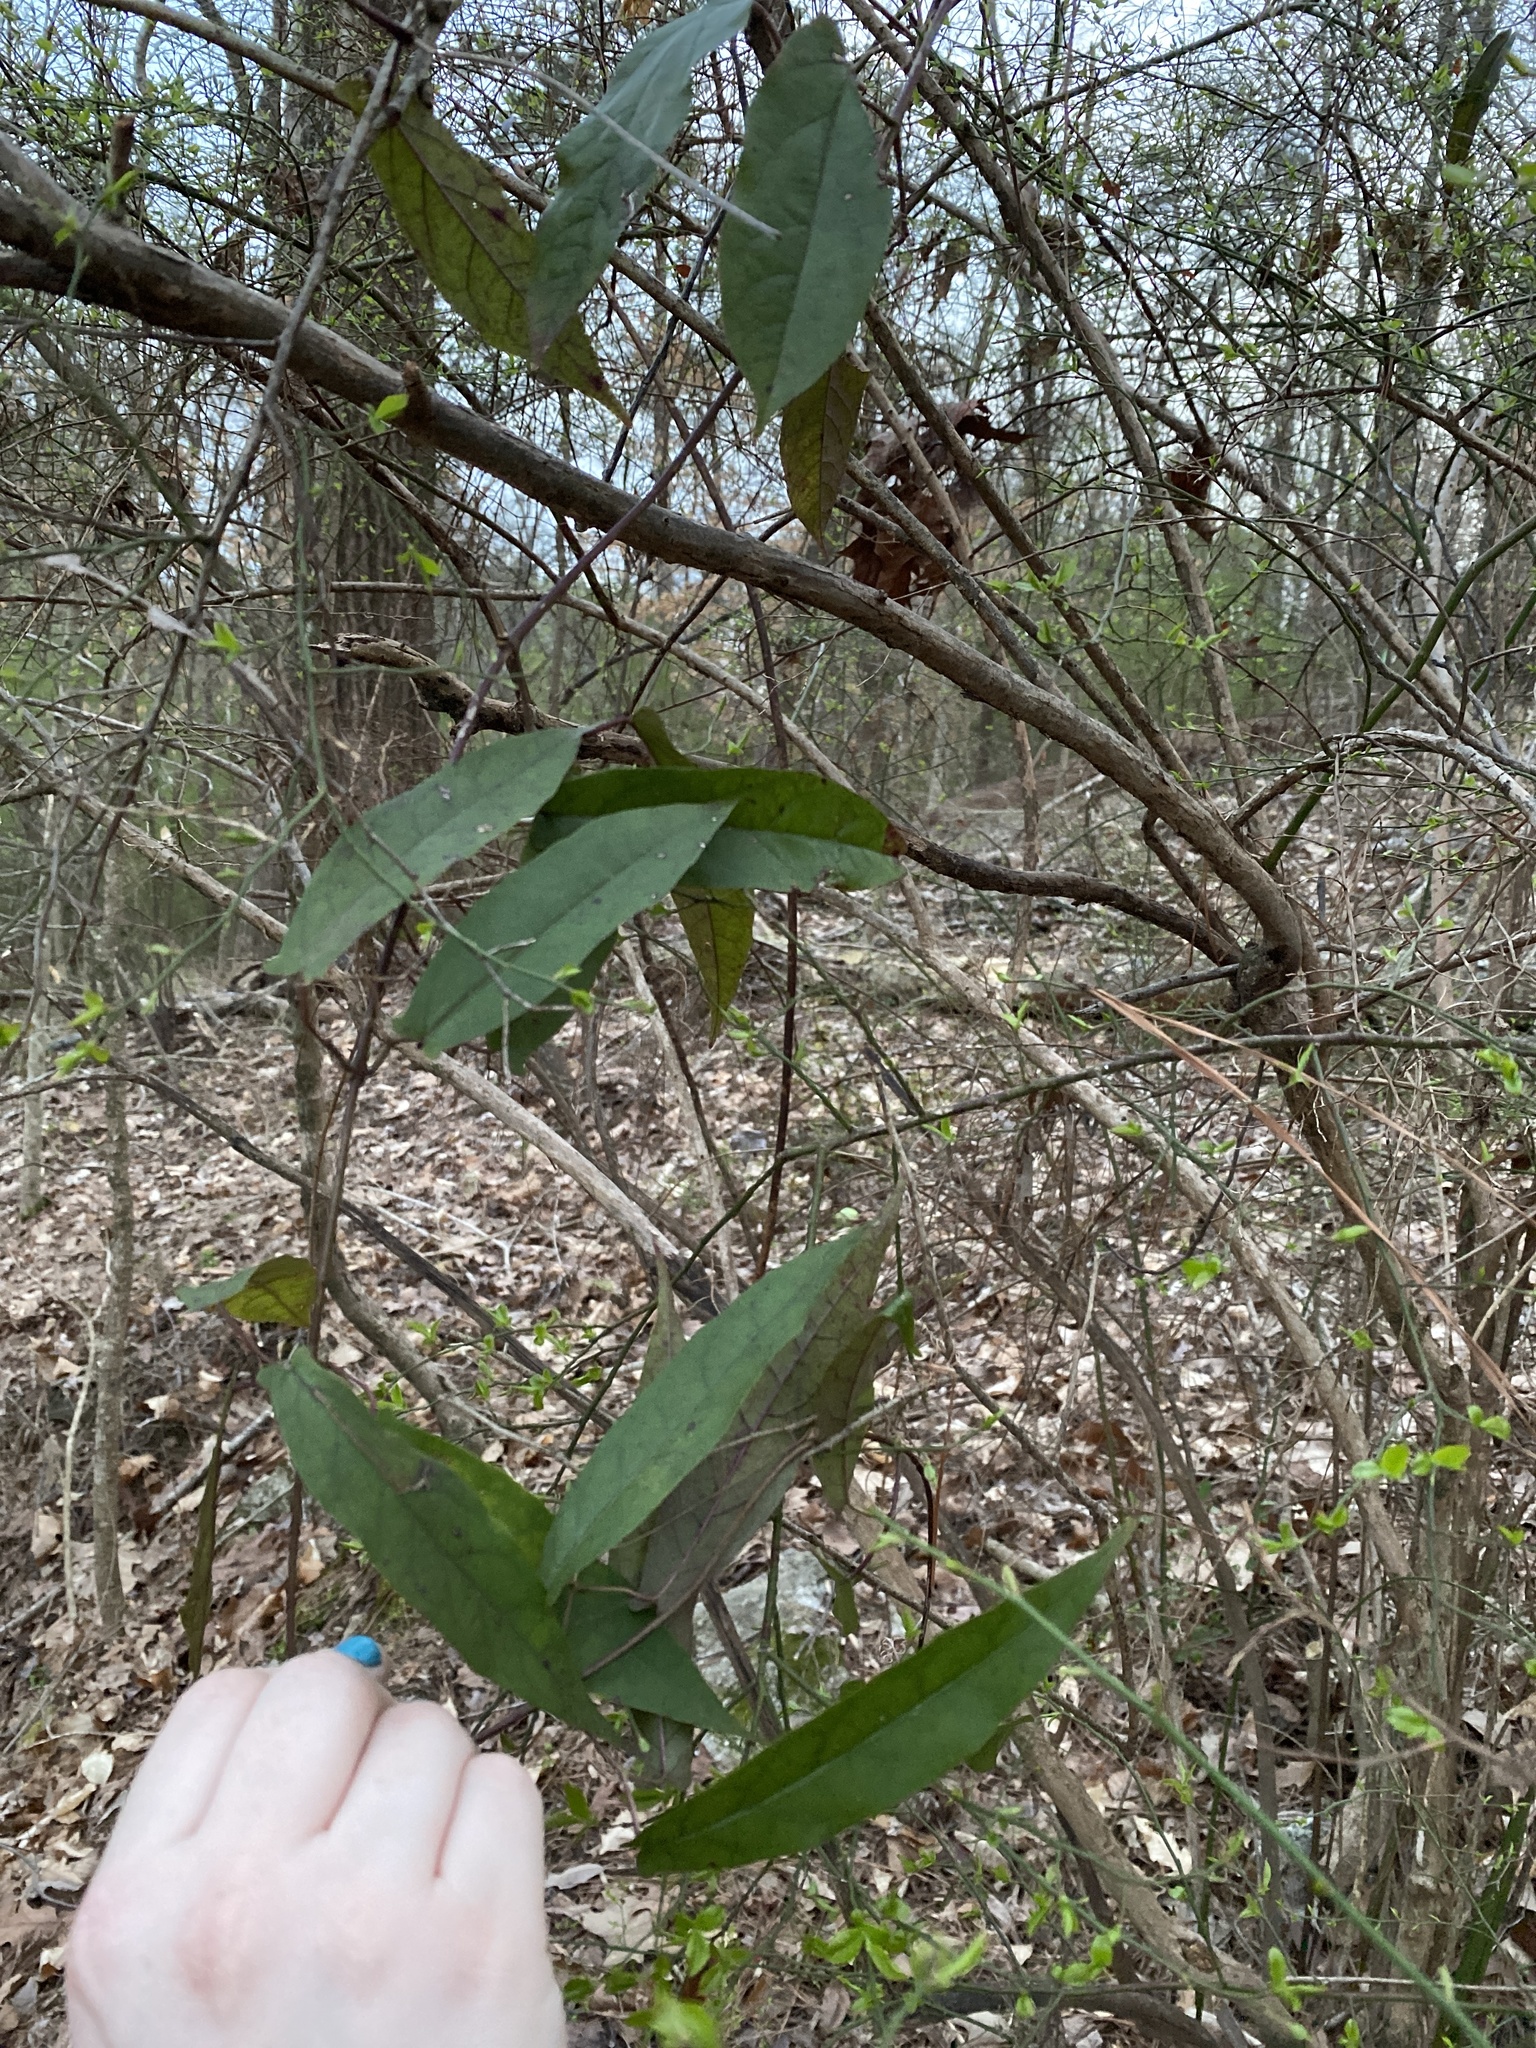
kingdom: Plantae
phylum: Tracheophyta
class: Magnoliopsida
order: Lamiales
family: Bignoniaceae
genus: Bignonia
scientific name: Bignonia capreolata
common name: Crossvine
